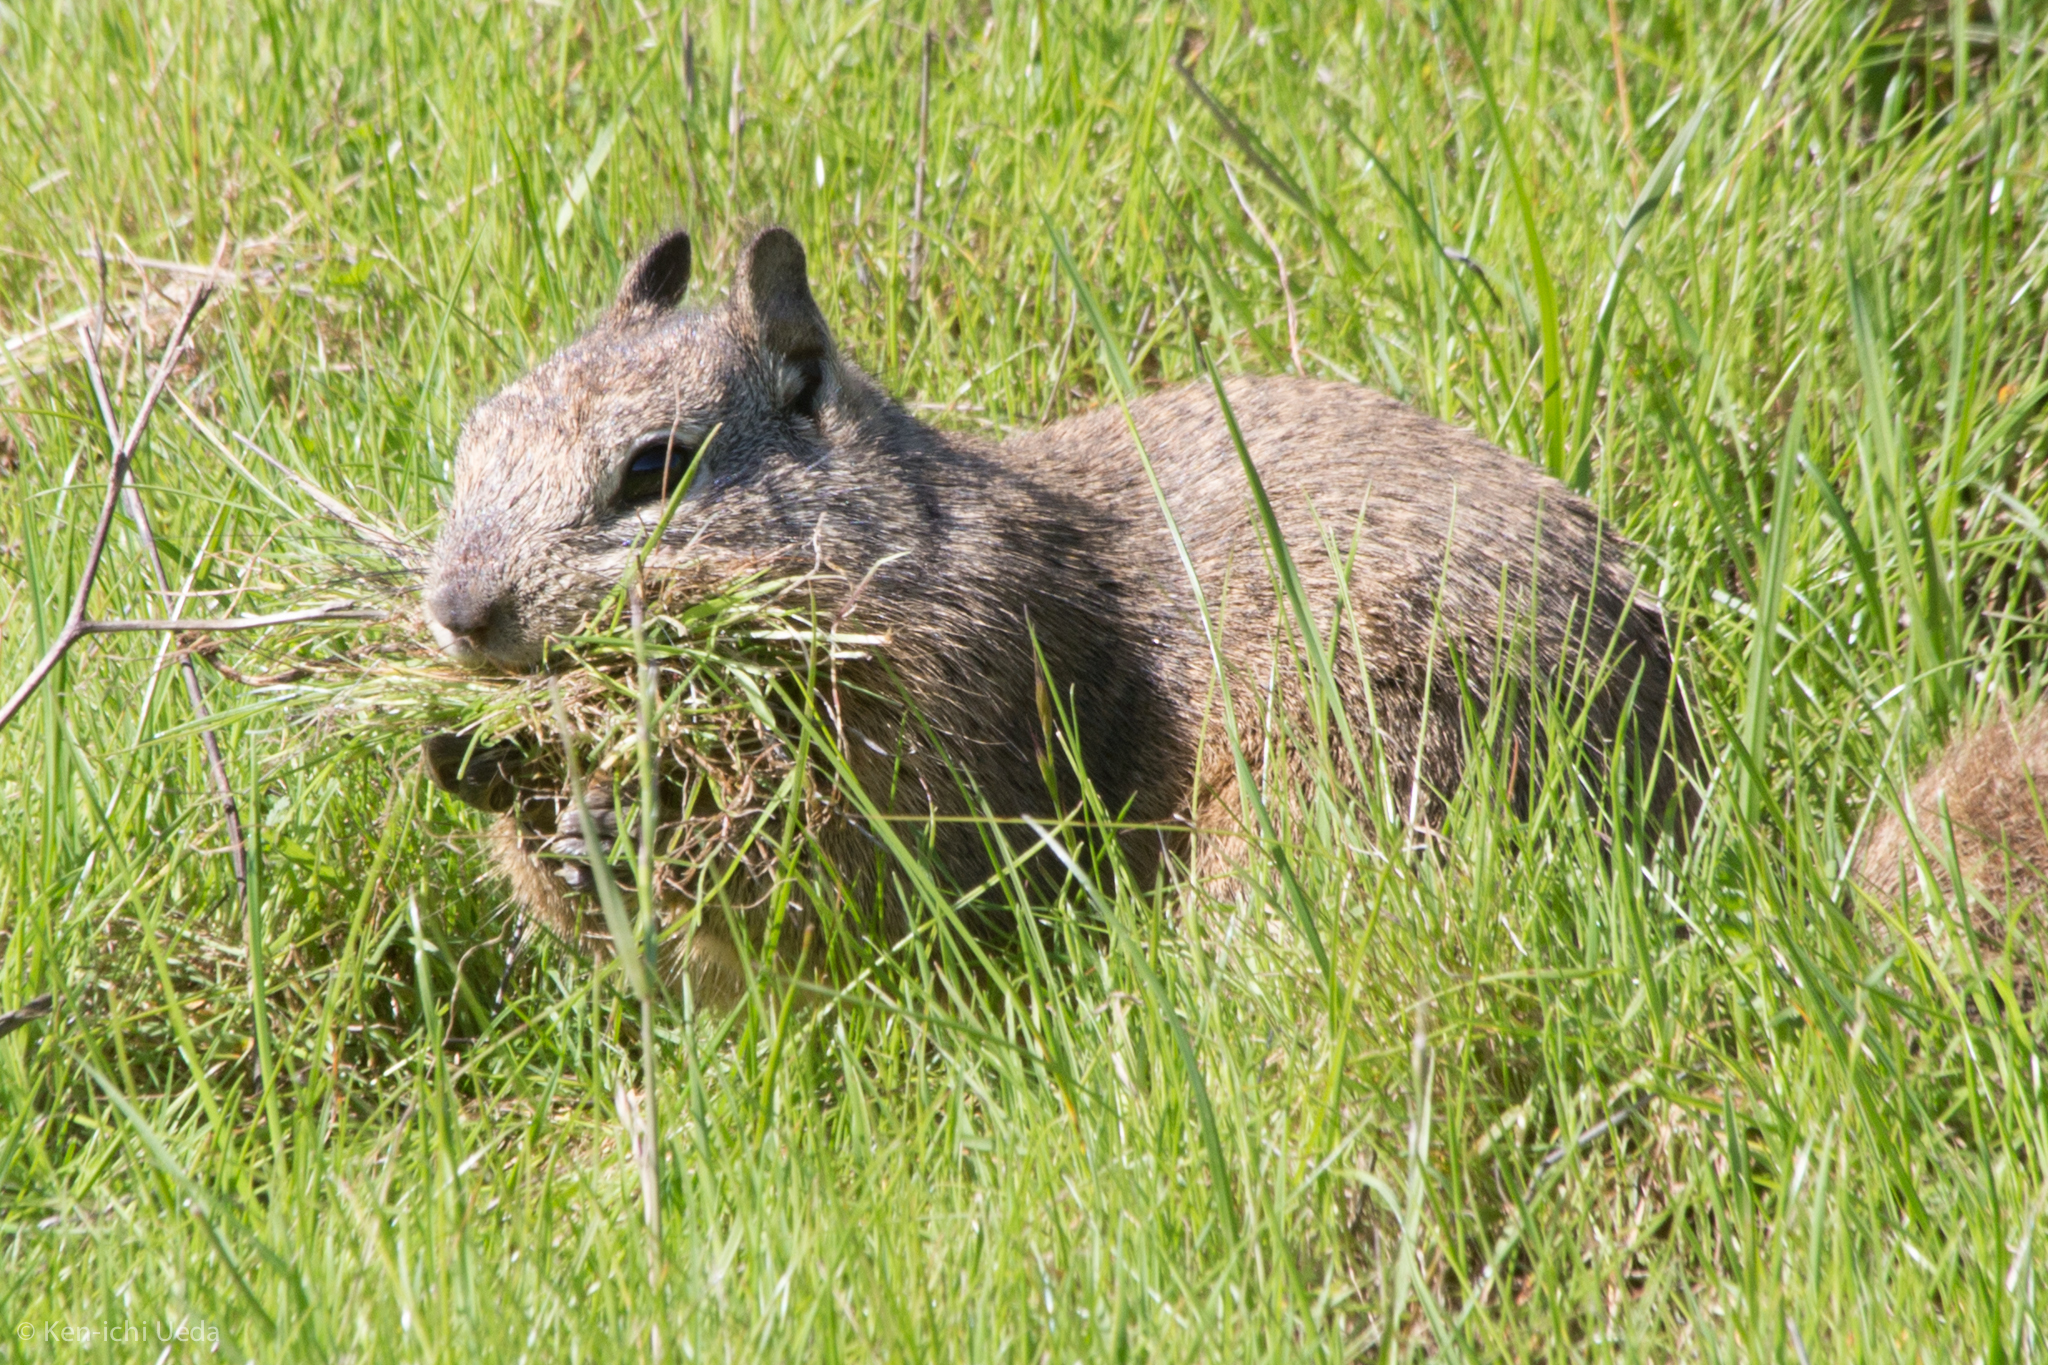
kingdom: Animalia
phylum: Chordata
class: Mammalia
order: Rodentia
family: Sciuridae
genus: Otospermophilus
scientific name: Otospermophilus beecheyi
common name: California ground squirrel
